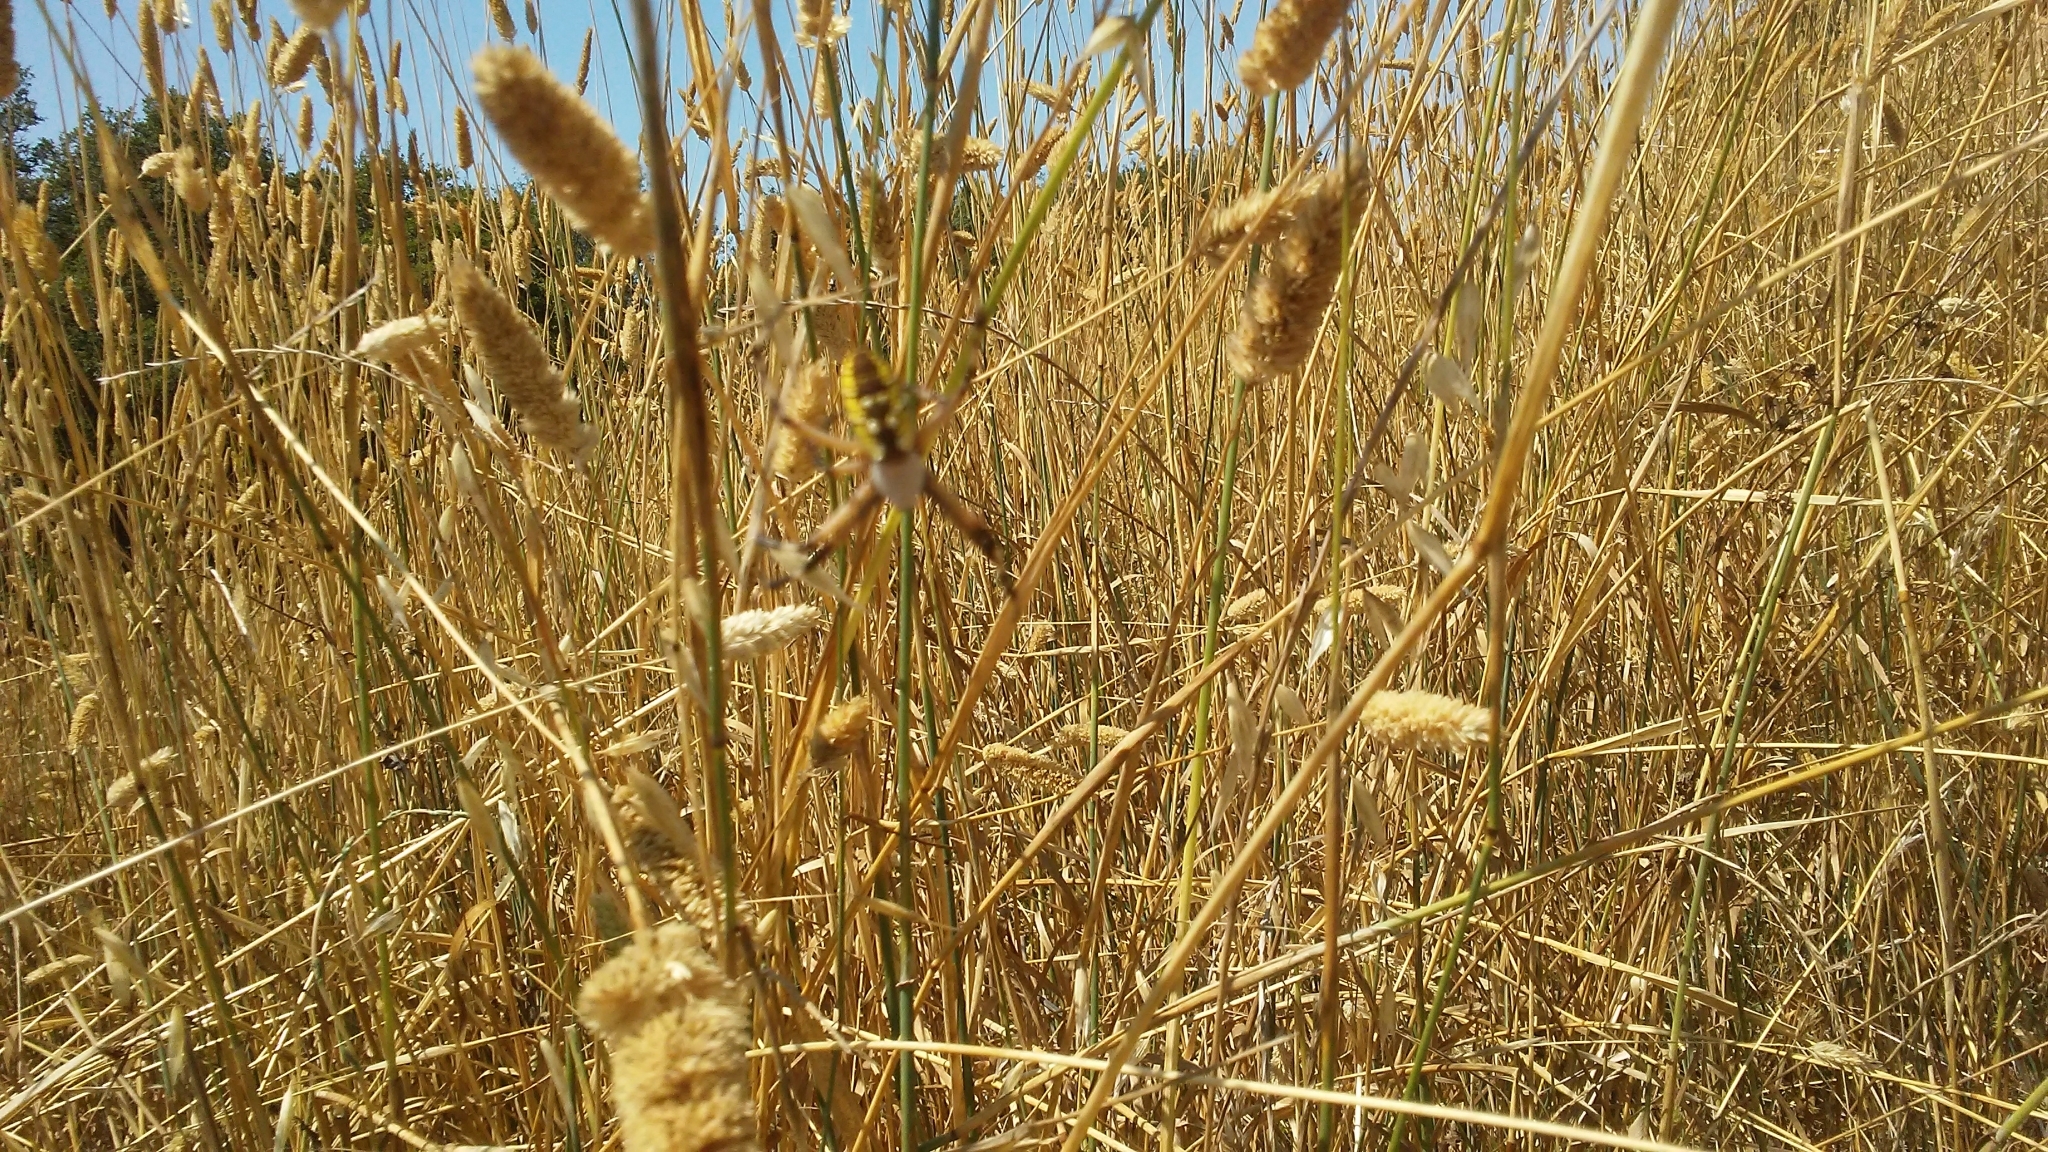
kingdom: Animalia
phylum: Arthropoda
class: Arachnida
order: Araneae
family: Araneidae
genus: Argiope
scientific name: Argiope aurantia
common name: Orb weavers
